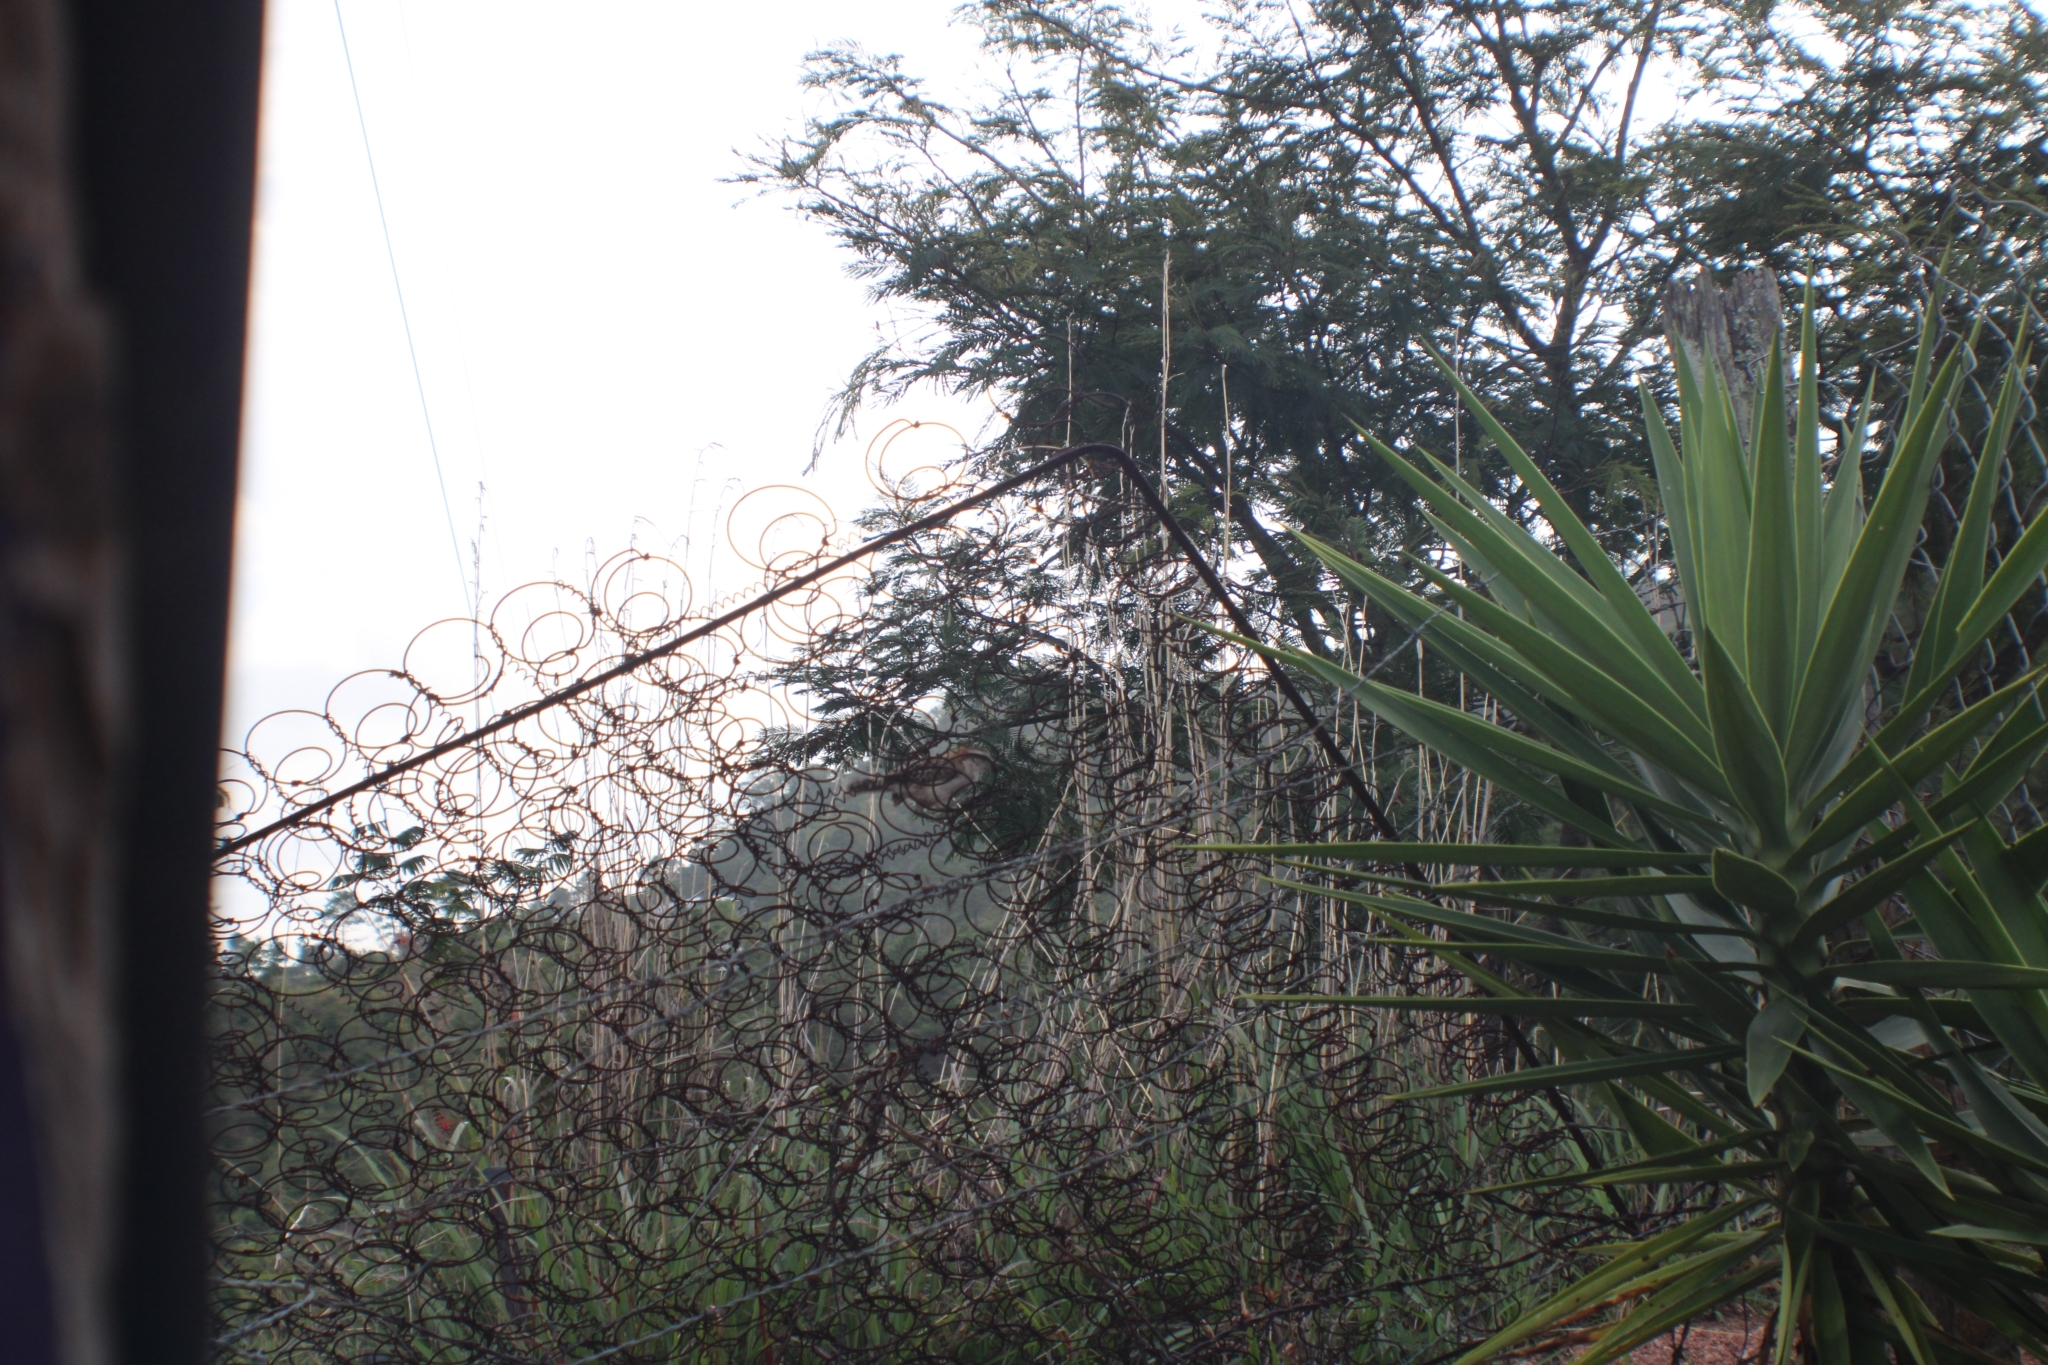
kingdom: Animalia
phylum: Chordata
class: Aves
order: Passeriformes
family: Troglodytidae
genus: Campylorhynchus
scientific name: Campylorhynchus rufinucha
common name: Rufous-naped wren
